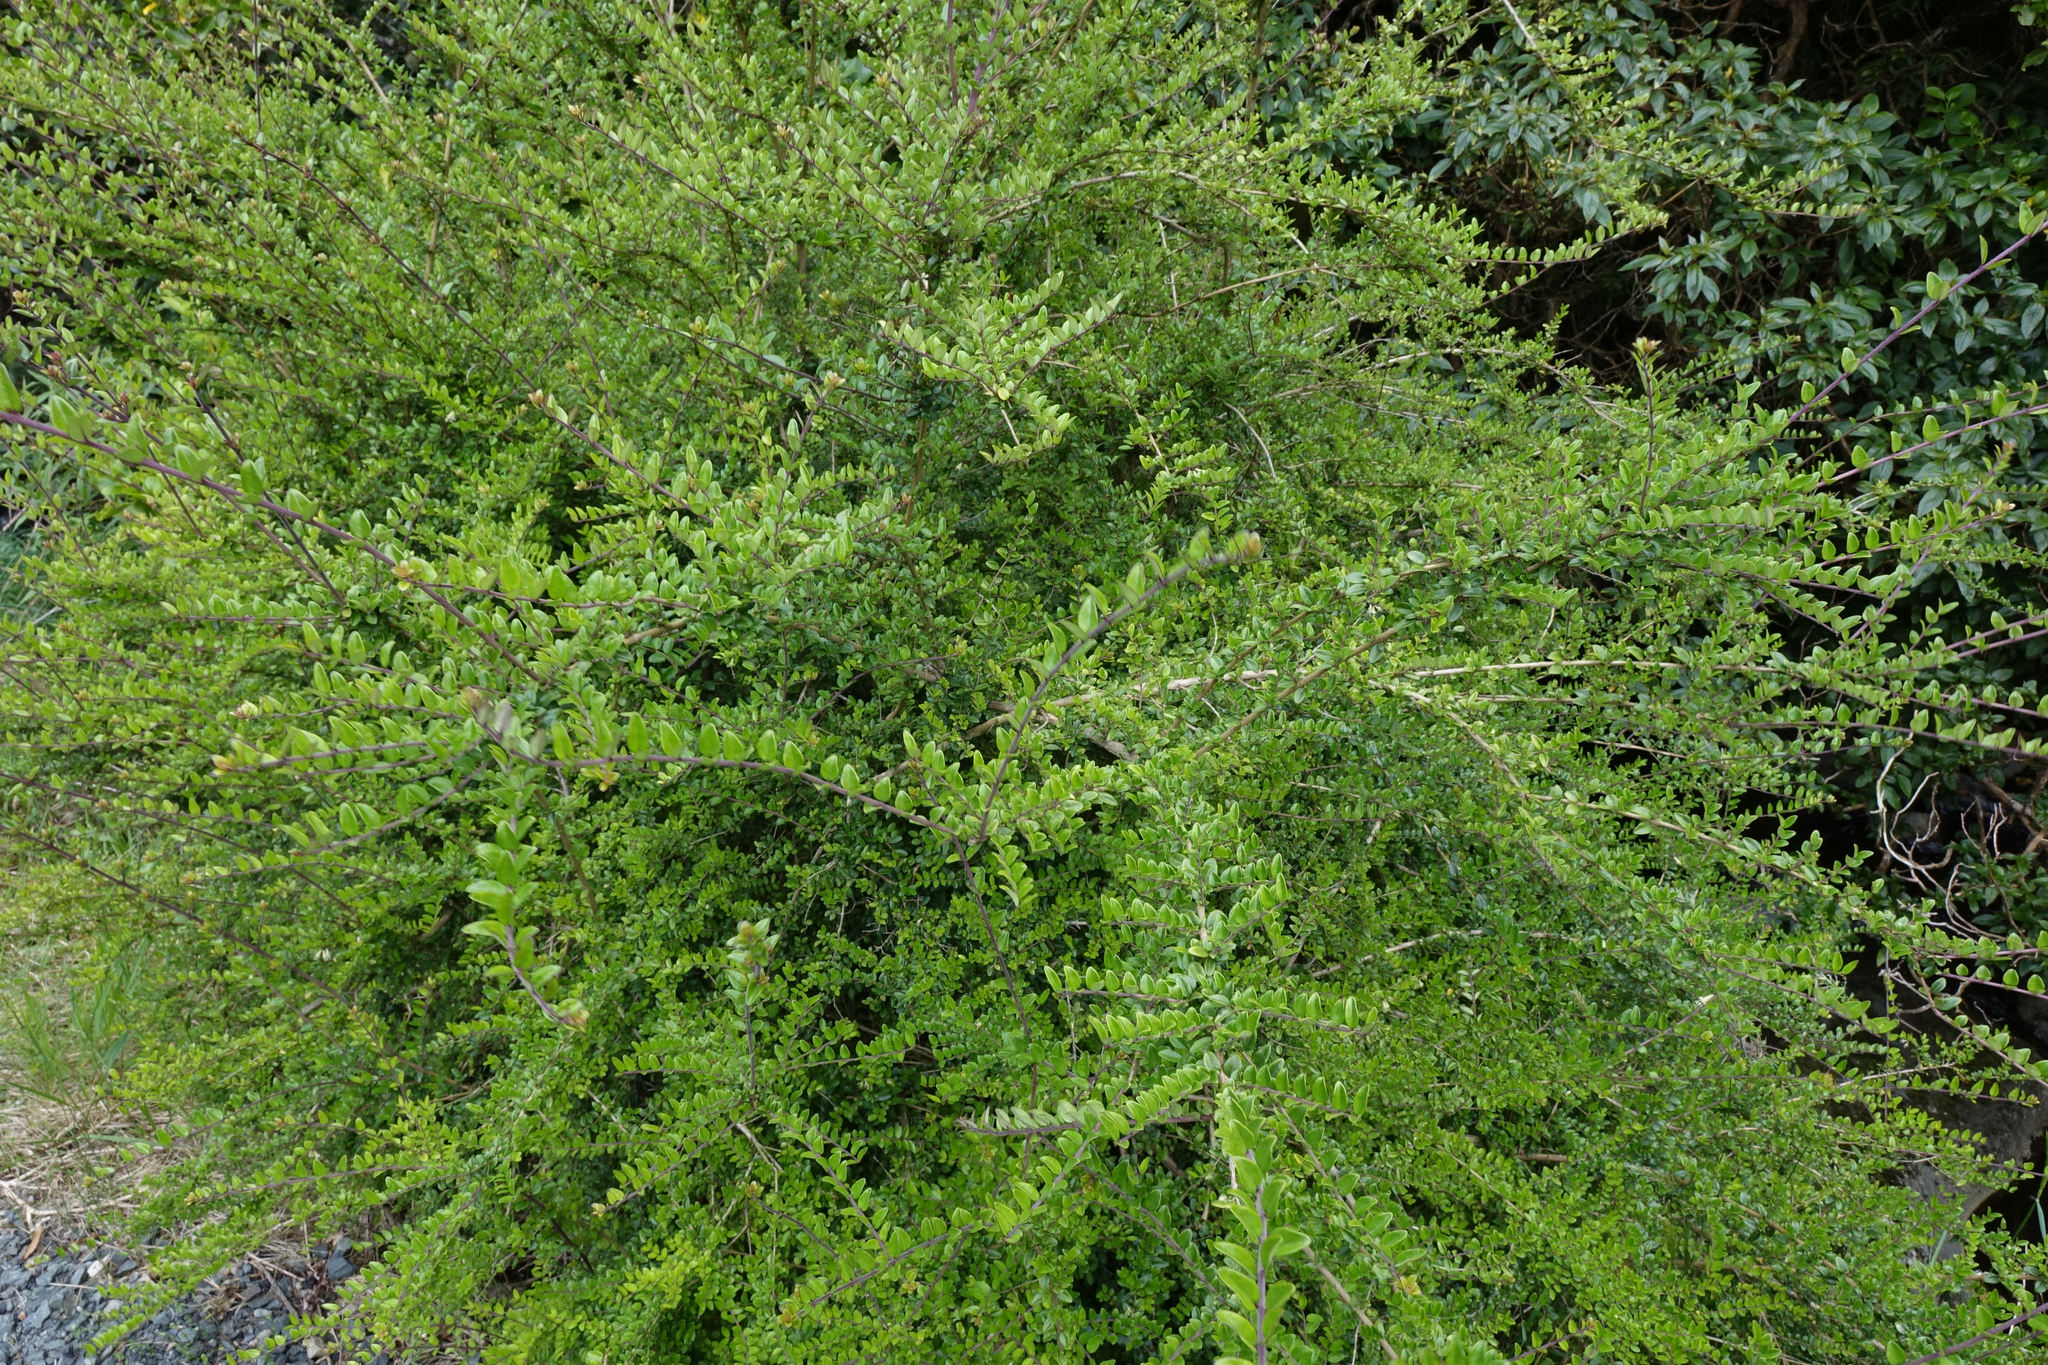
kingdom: Plantae
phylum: Tracheophyta
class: Magnoliopsida
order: Dipsacales
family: Caprifoliaceae
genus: Lonicera
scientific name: Lonicera pileata
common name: Box-leaved honeysuckle
